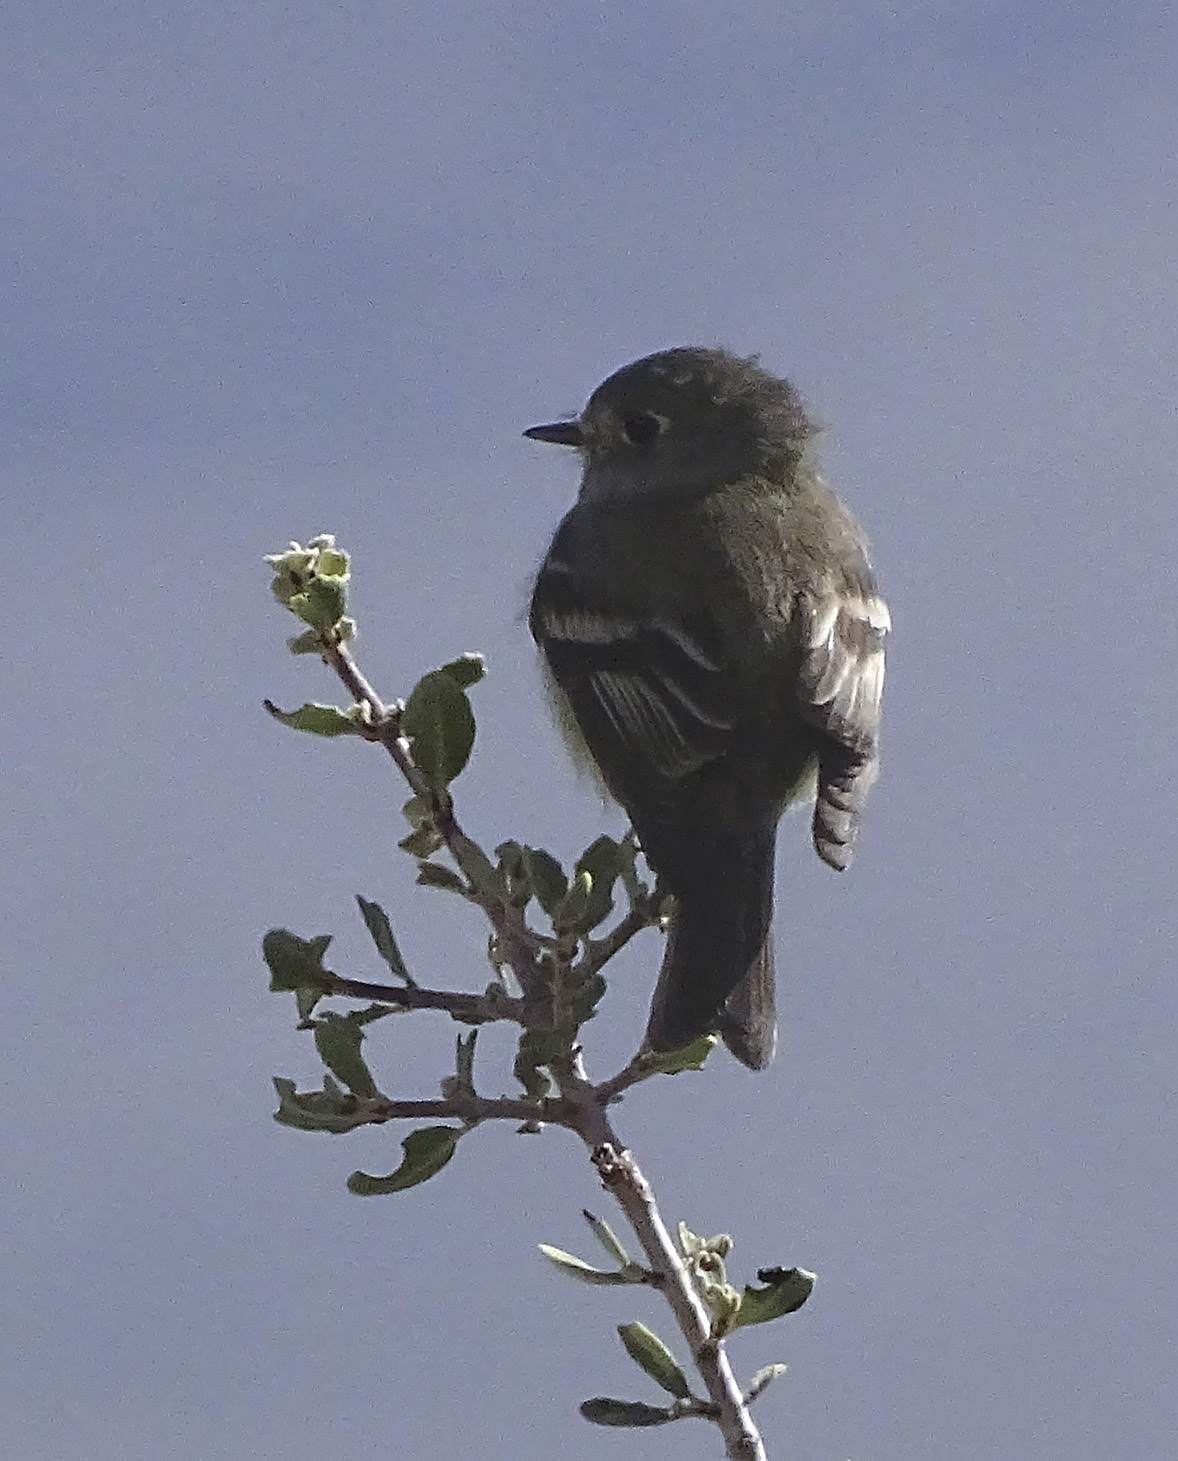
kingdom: Animalia
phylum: Chordata
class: Aves
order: Passeriformes
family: Tyrannidae
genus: Empidonax
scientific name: Empidonax hammondii
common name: Hammond's flycatcher
